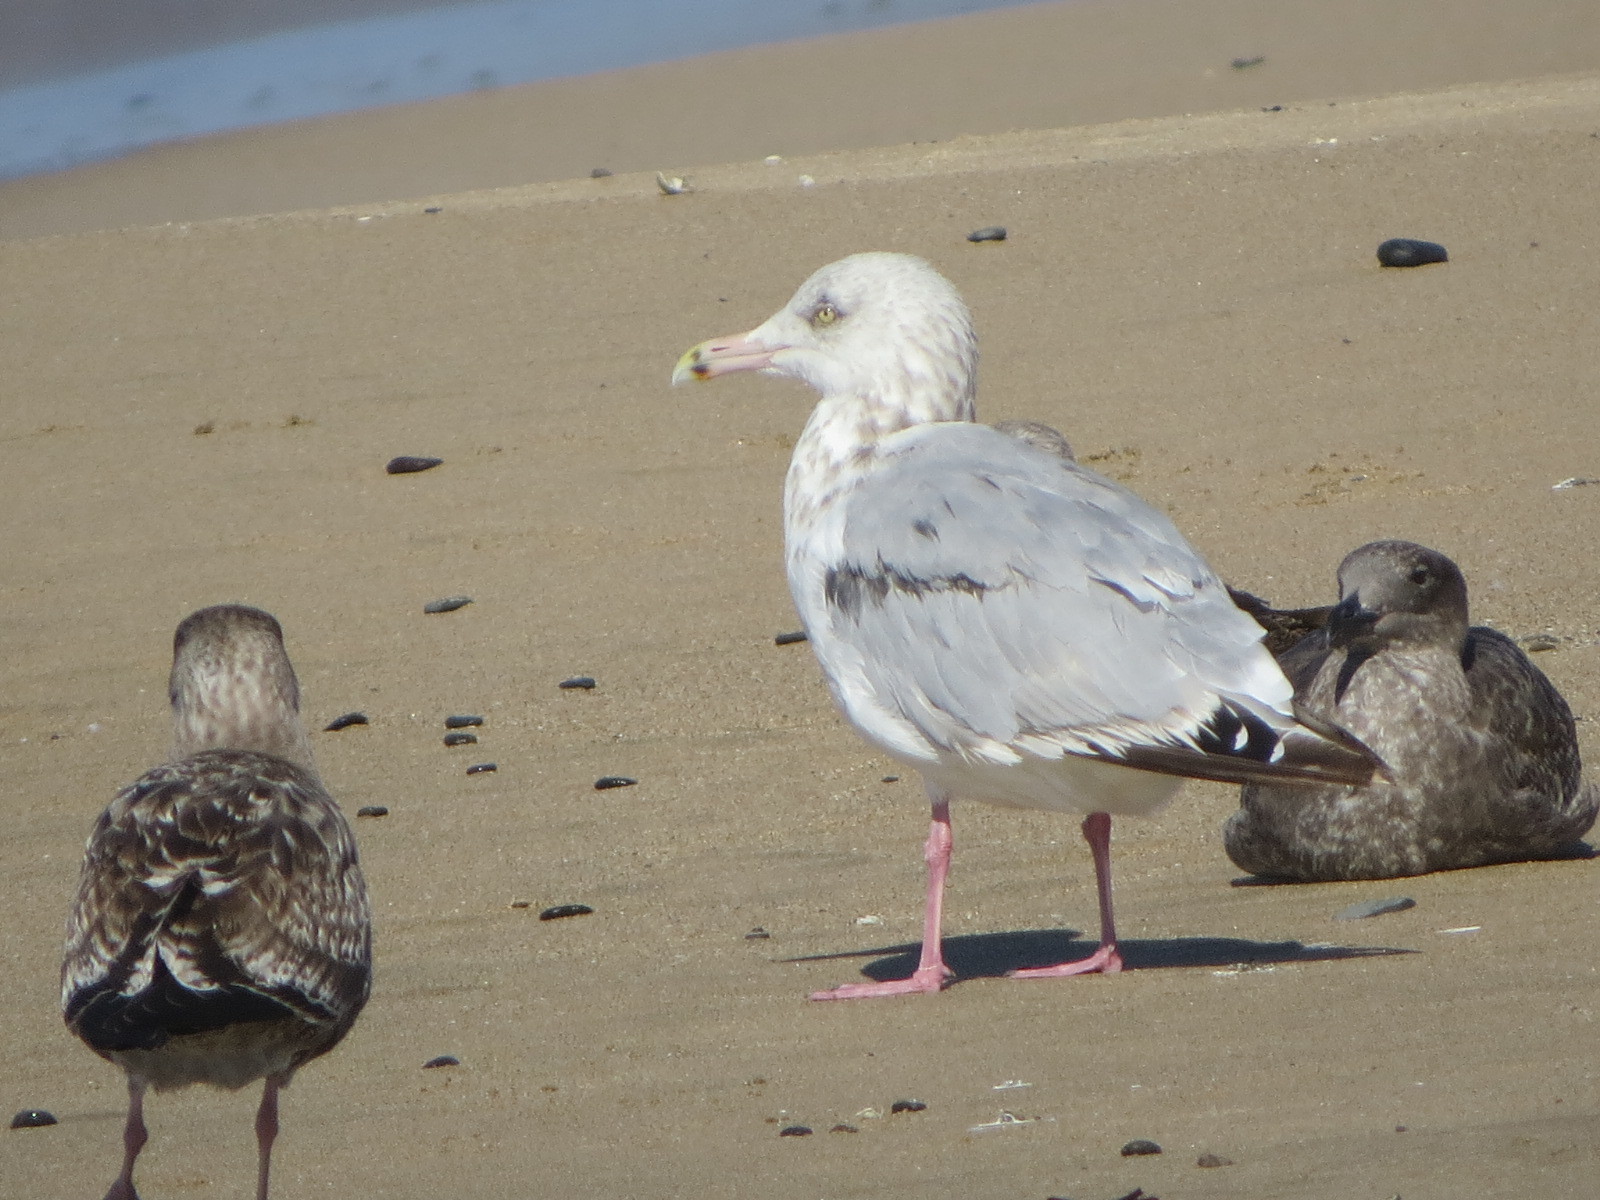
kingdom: Animalia
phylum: Chordata
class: Aves
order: Charadriiformes
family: Laridae
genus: Larus
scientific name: Larus argentatus
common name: Herring gull
